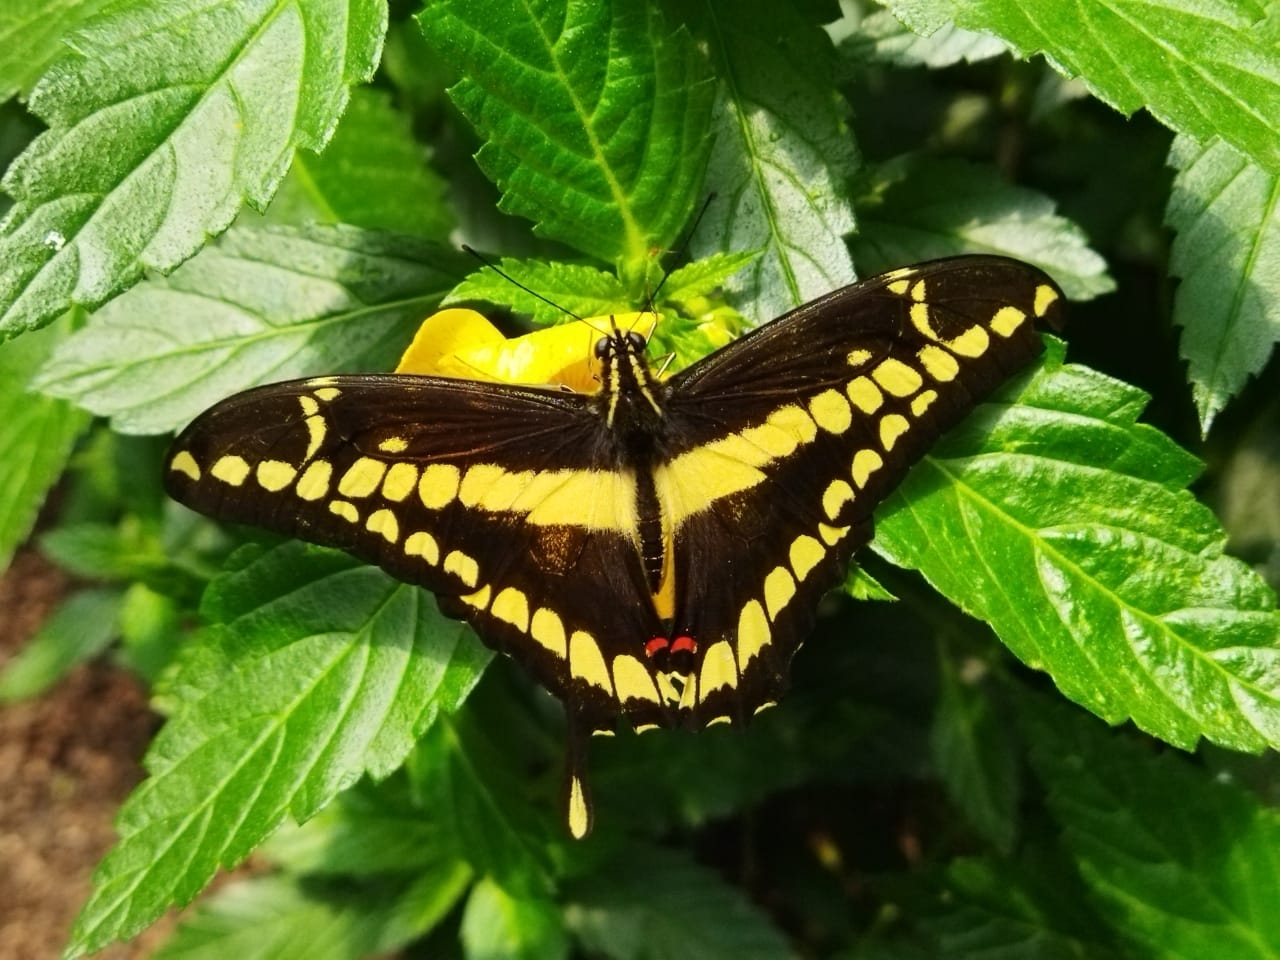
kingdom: Animalia
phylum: Arthropoda
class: Insecta
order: Lepidoptera
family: Papilionidae
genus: Papilio
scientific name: Papilio thoas
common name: King swallowtail
